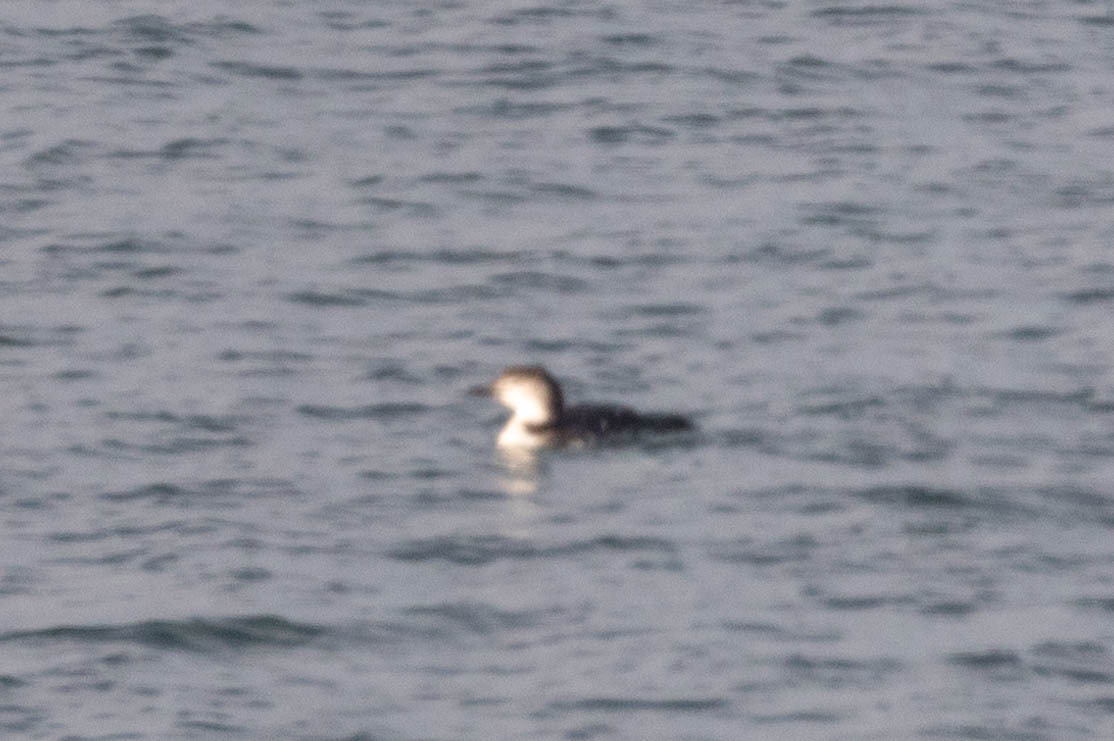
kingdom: Animalia
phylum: Chordata
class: Aves
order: Gaviiformes
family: Gaviidae
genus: Gavia
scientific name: Gavia immer
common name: Common loon
